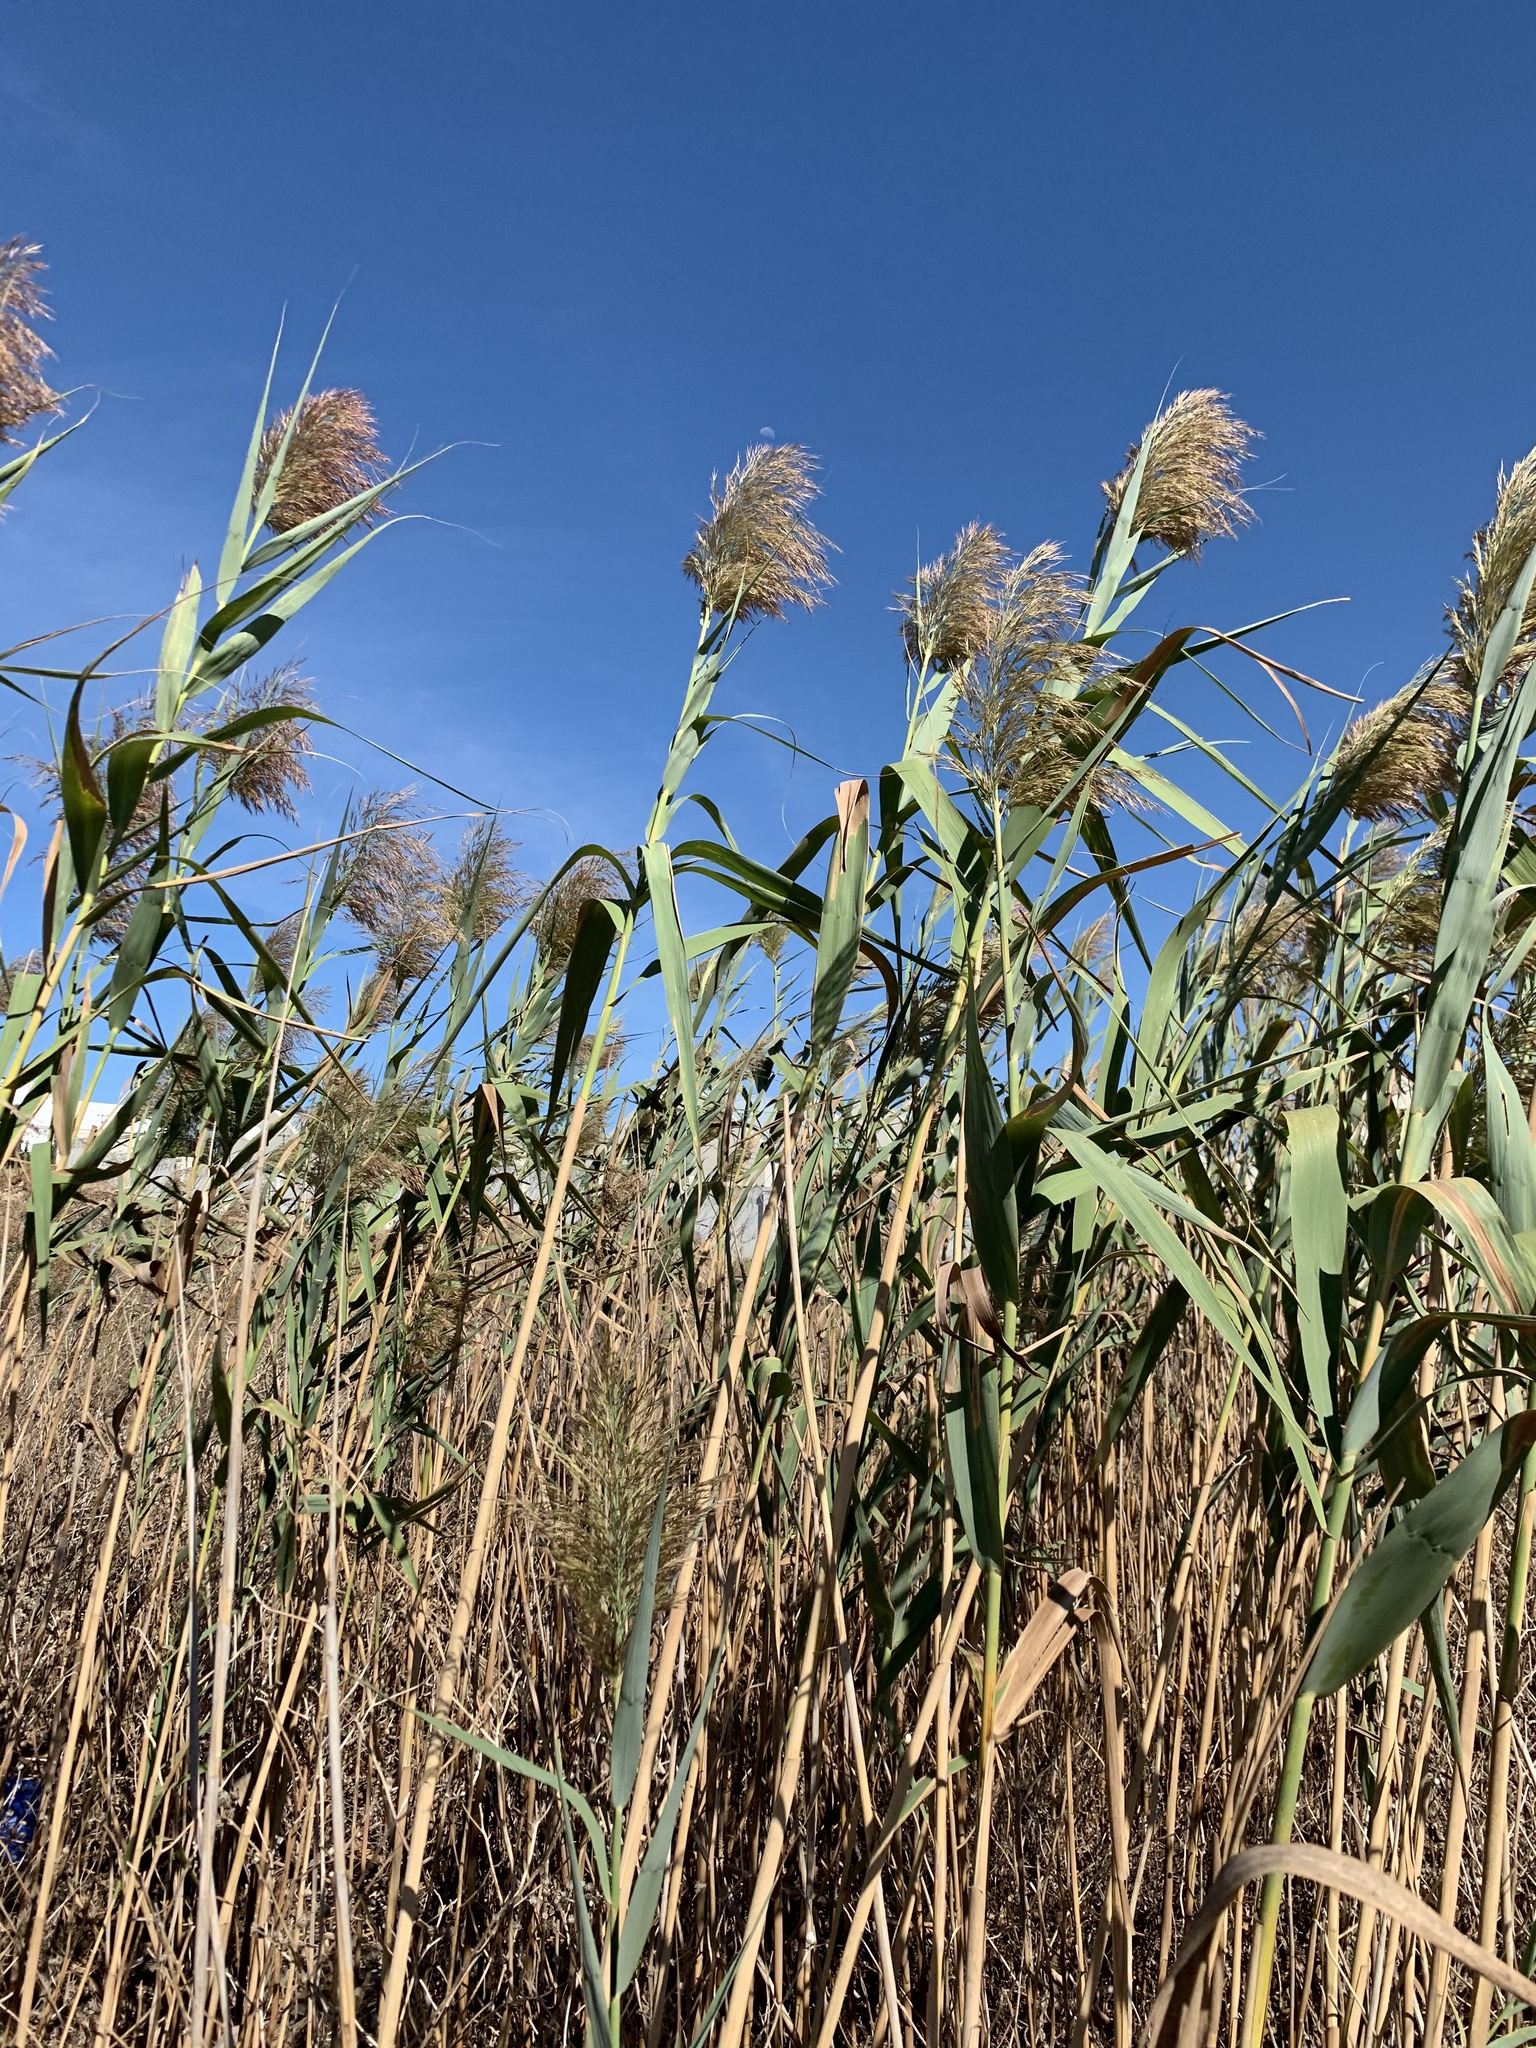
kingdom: Plantae
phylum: Tracheophyta
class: Liliopsida
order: Poales
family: Poaceae
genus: Phragmites
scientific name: Phragmites australis
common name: Common reed
